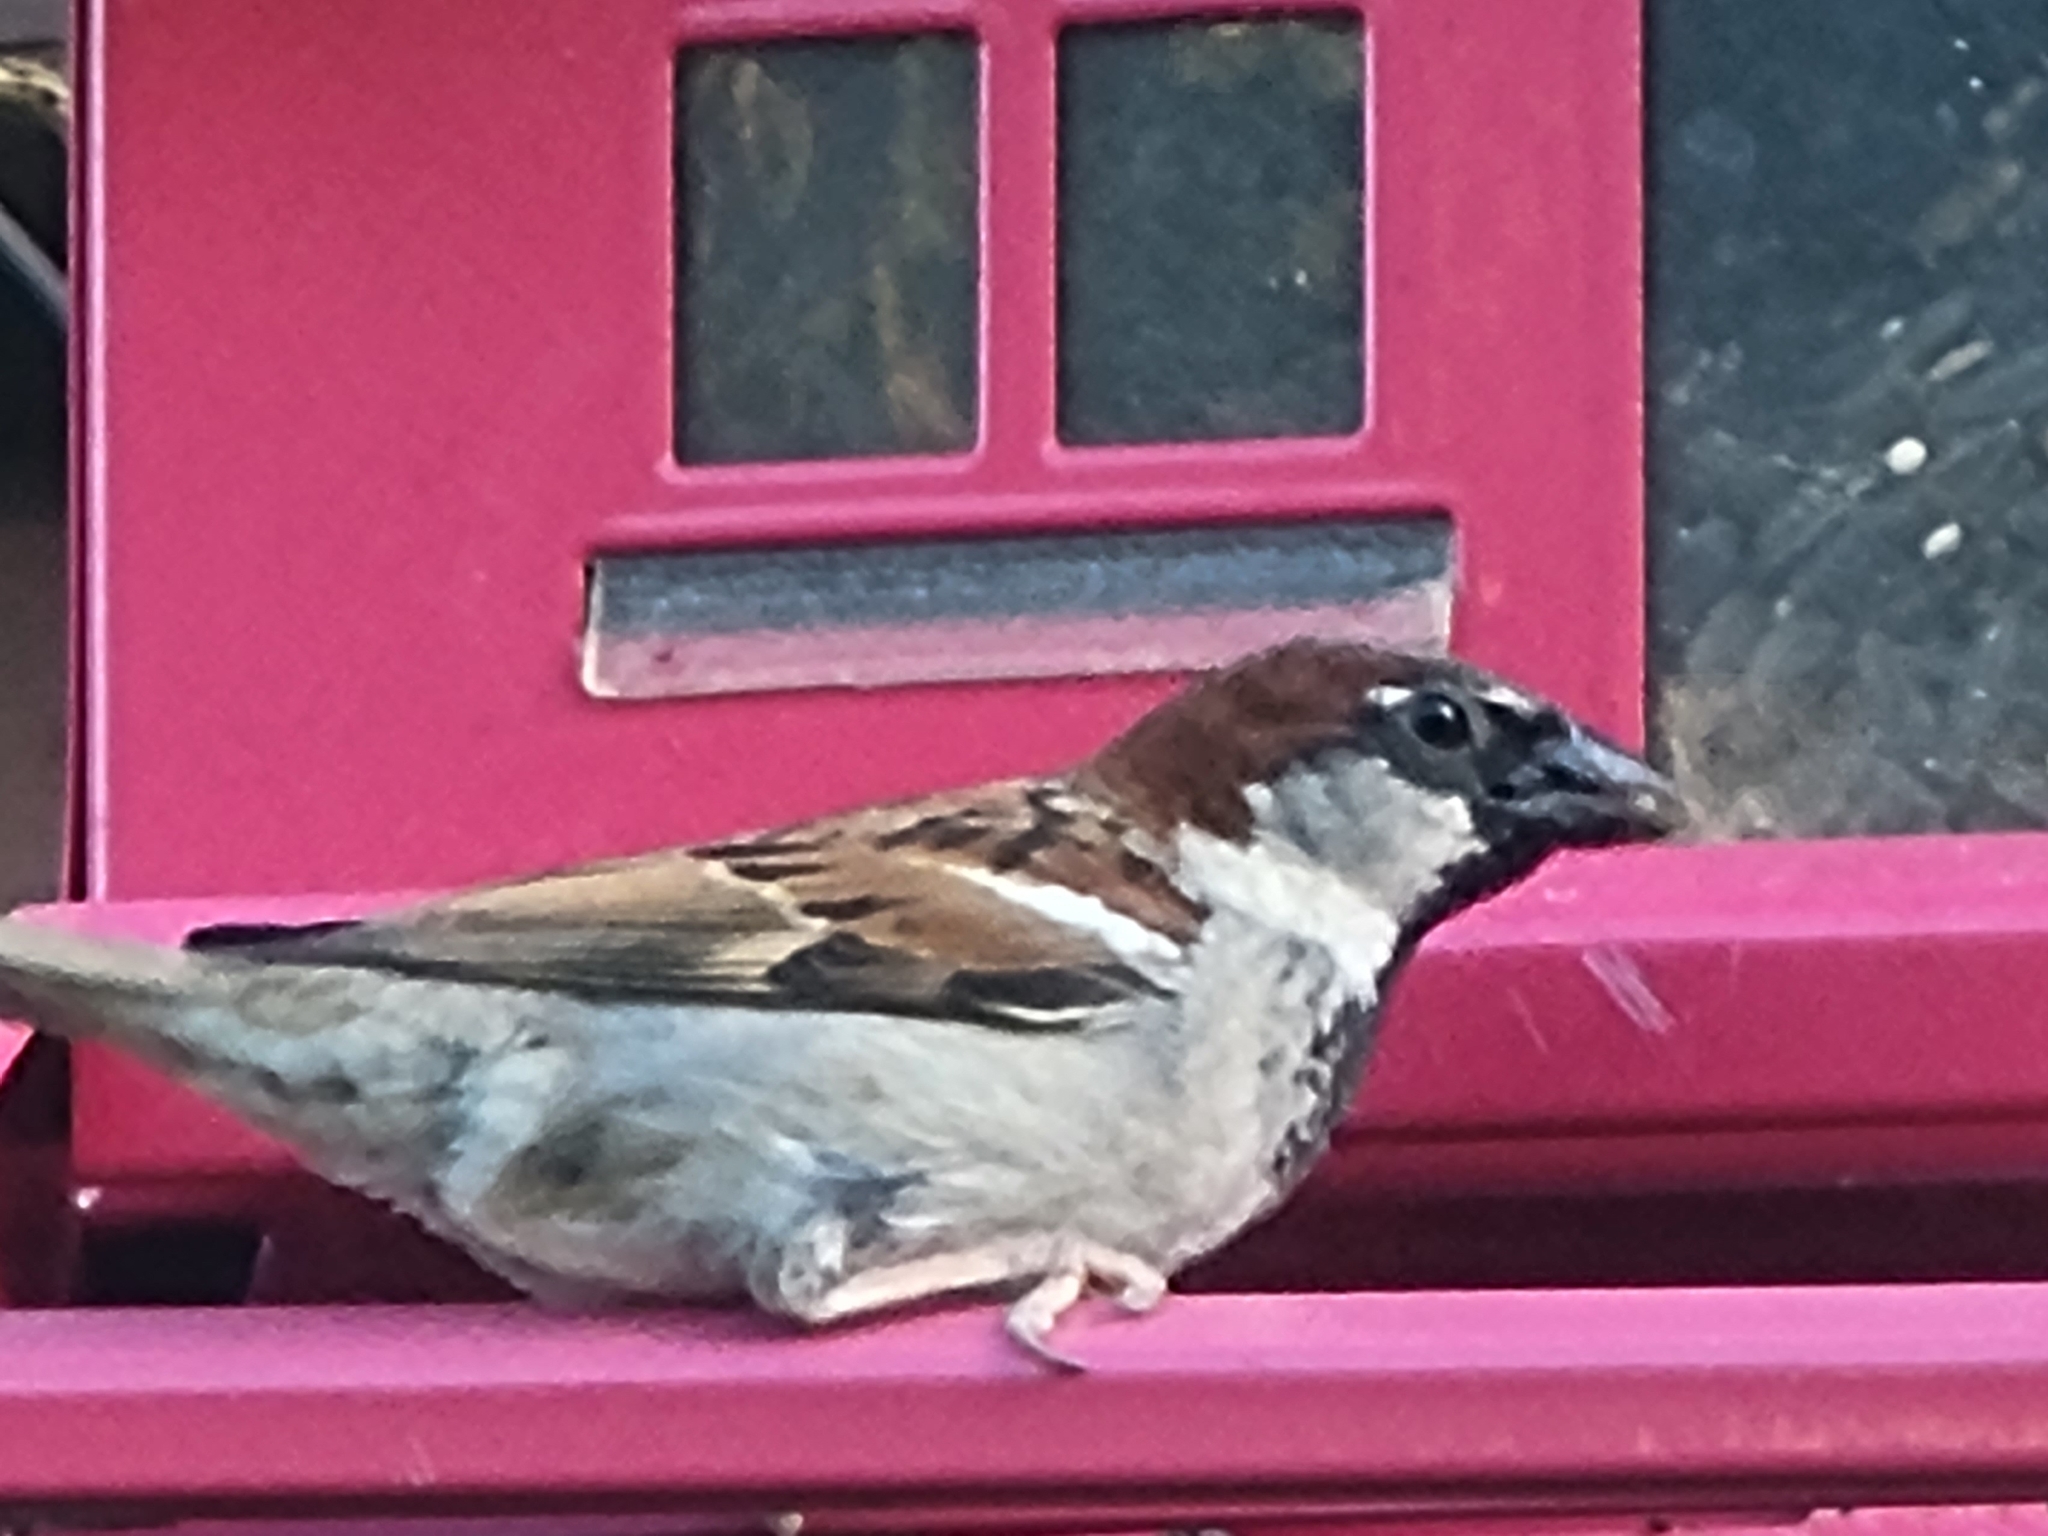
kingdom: Animalia
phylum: Chordata
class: Aves
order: Passeriformes
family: Passeridae
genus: Passer
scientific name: Passer domesticus
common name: House sparrow
